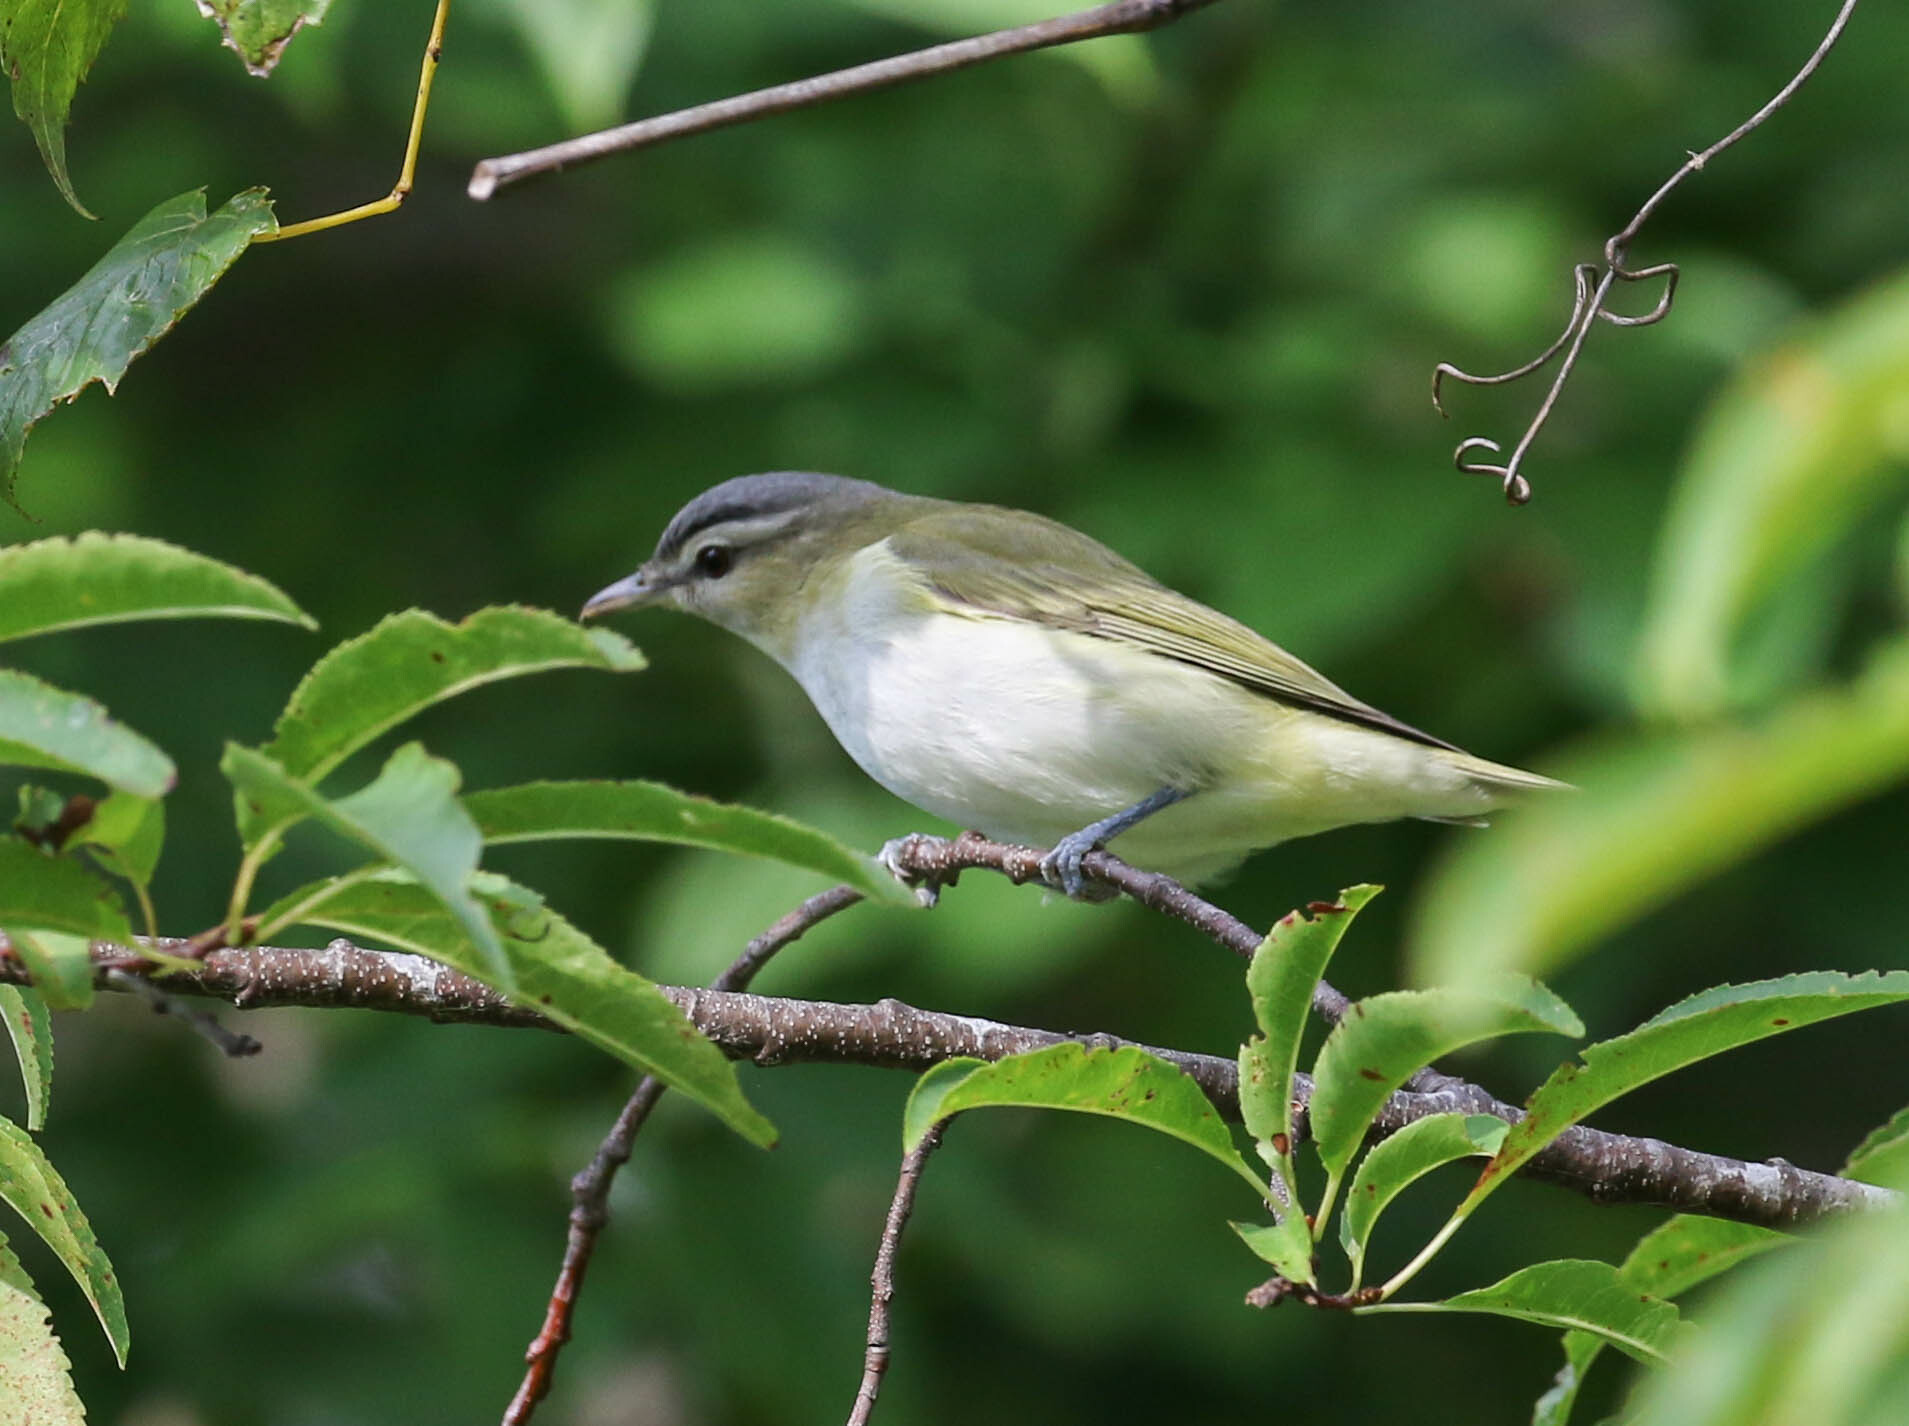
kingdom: Animalia
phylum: Chordata
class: Aves
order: Passeriformes
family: Vireonidae
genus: Vireo
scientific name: Vireo olivaceus
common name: Red-eyed vireo
